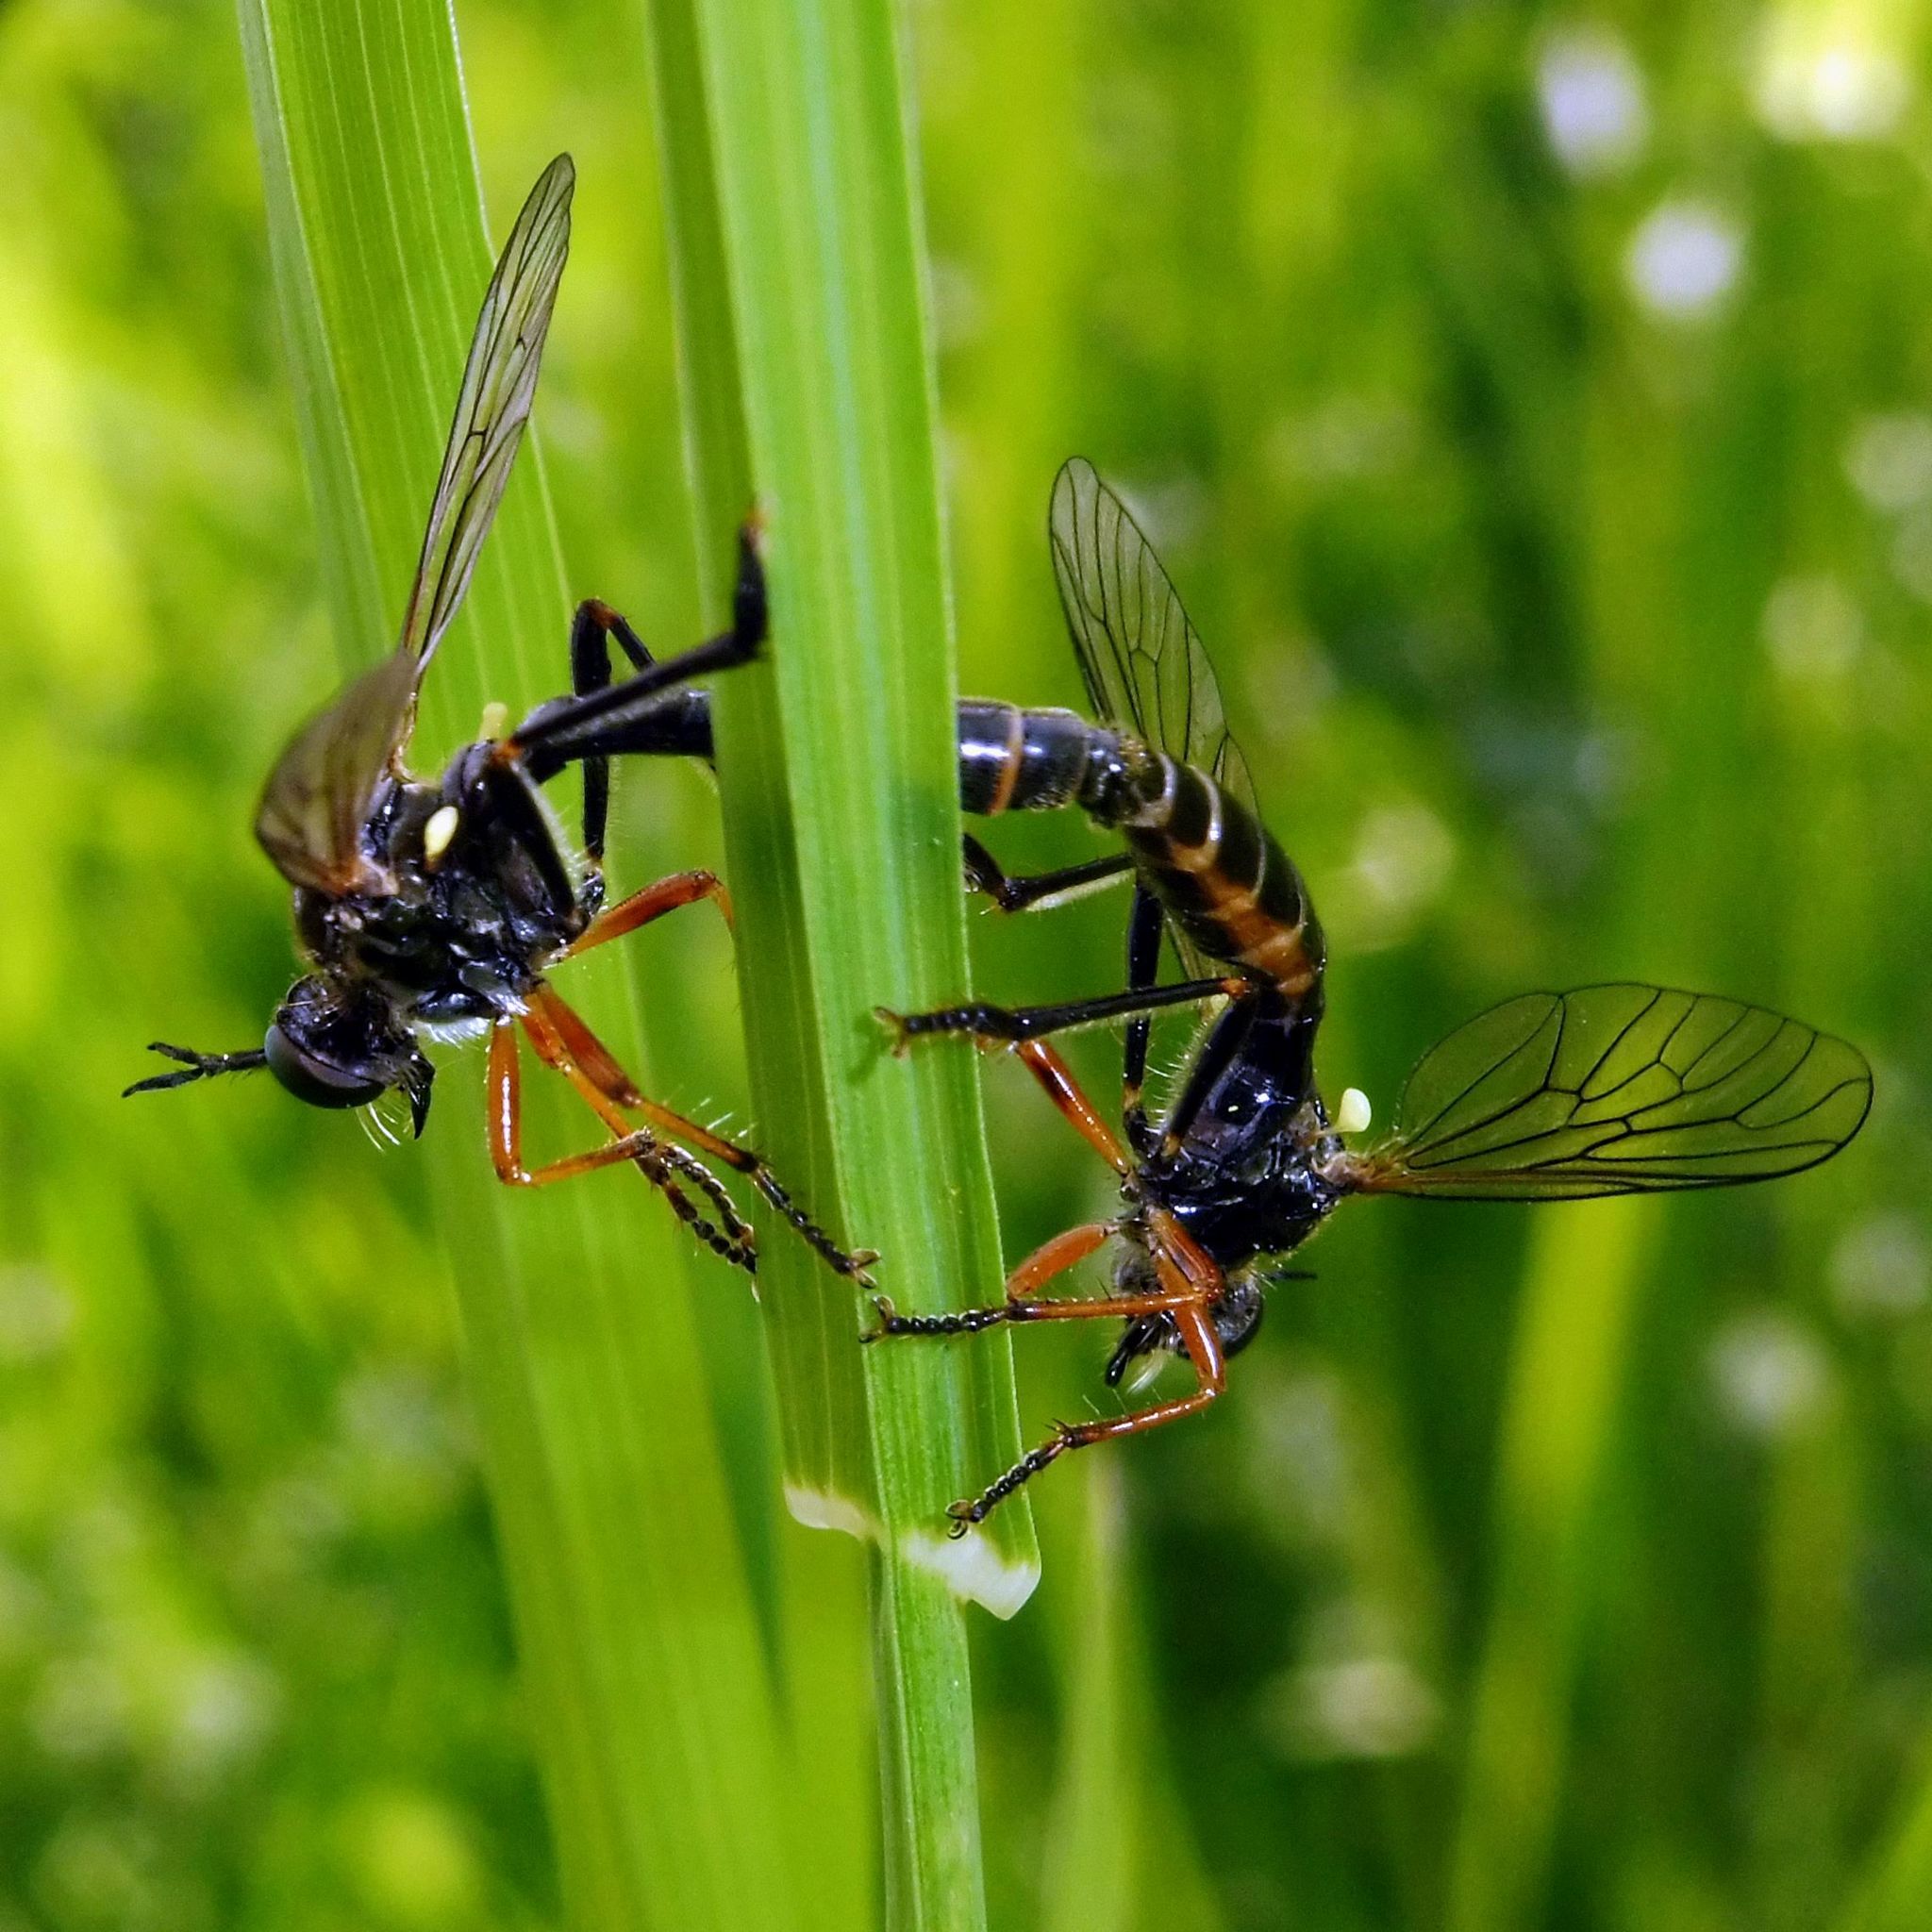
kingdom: Animalia
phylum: Arthropoda
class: Insecta
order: Diptera
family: Asilidae
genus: Dioctria
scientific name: Dioctria rufipes
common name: Common red-legged robberfly
